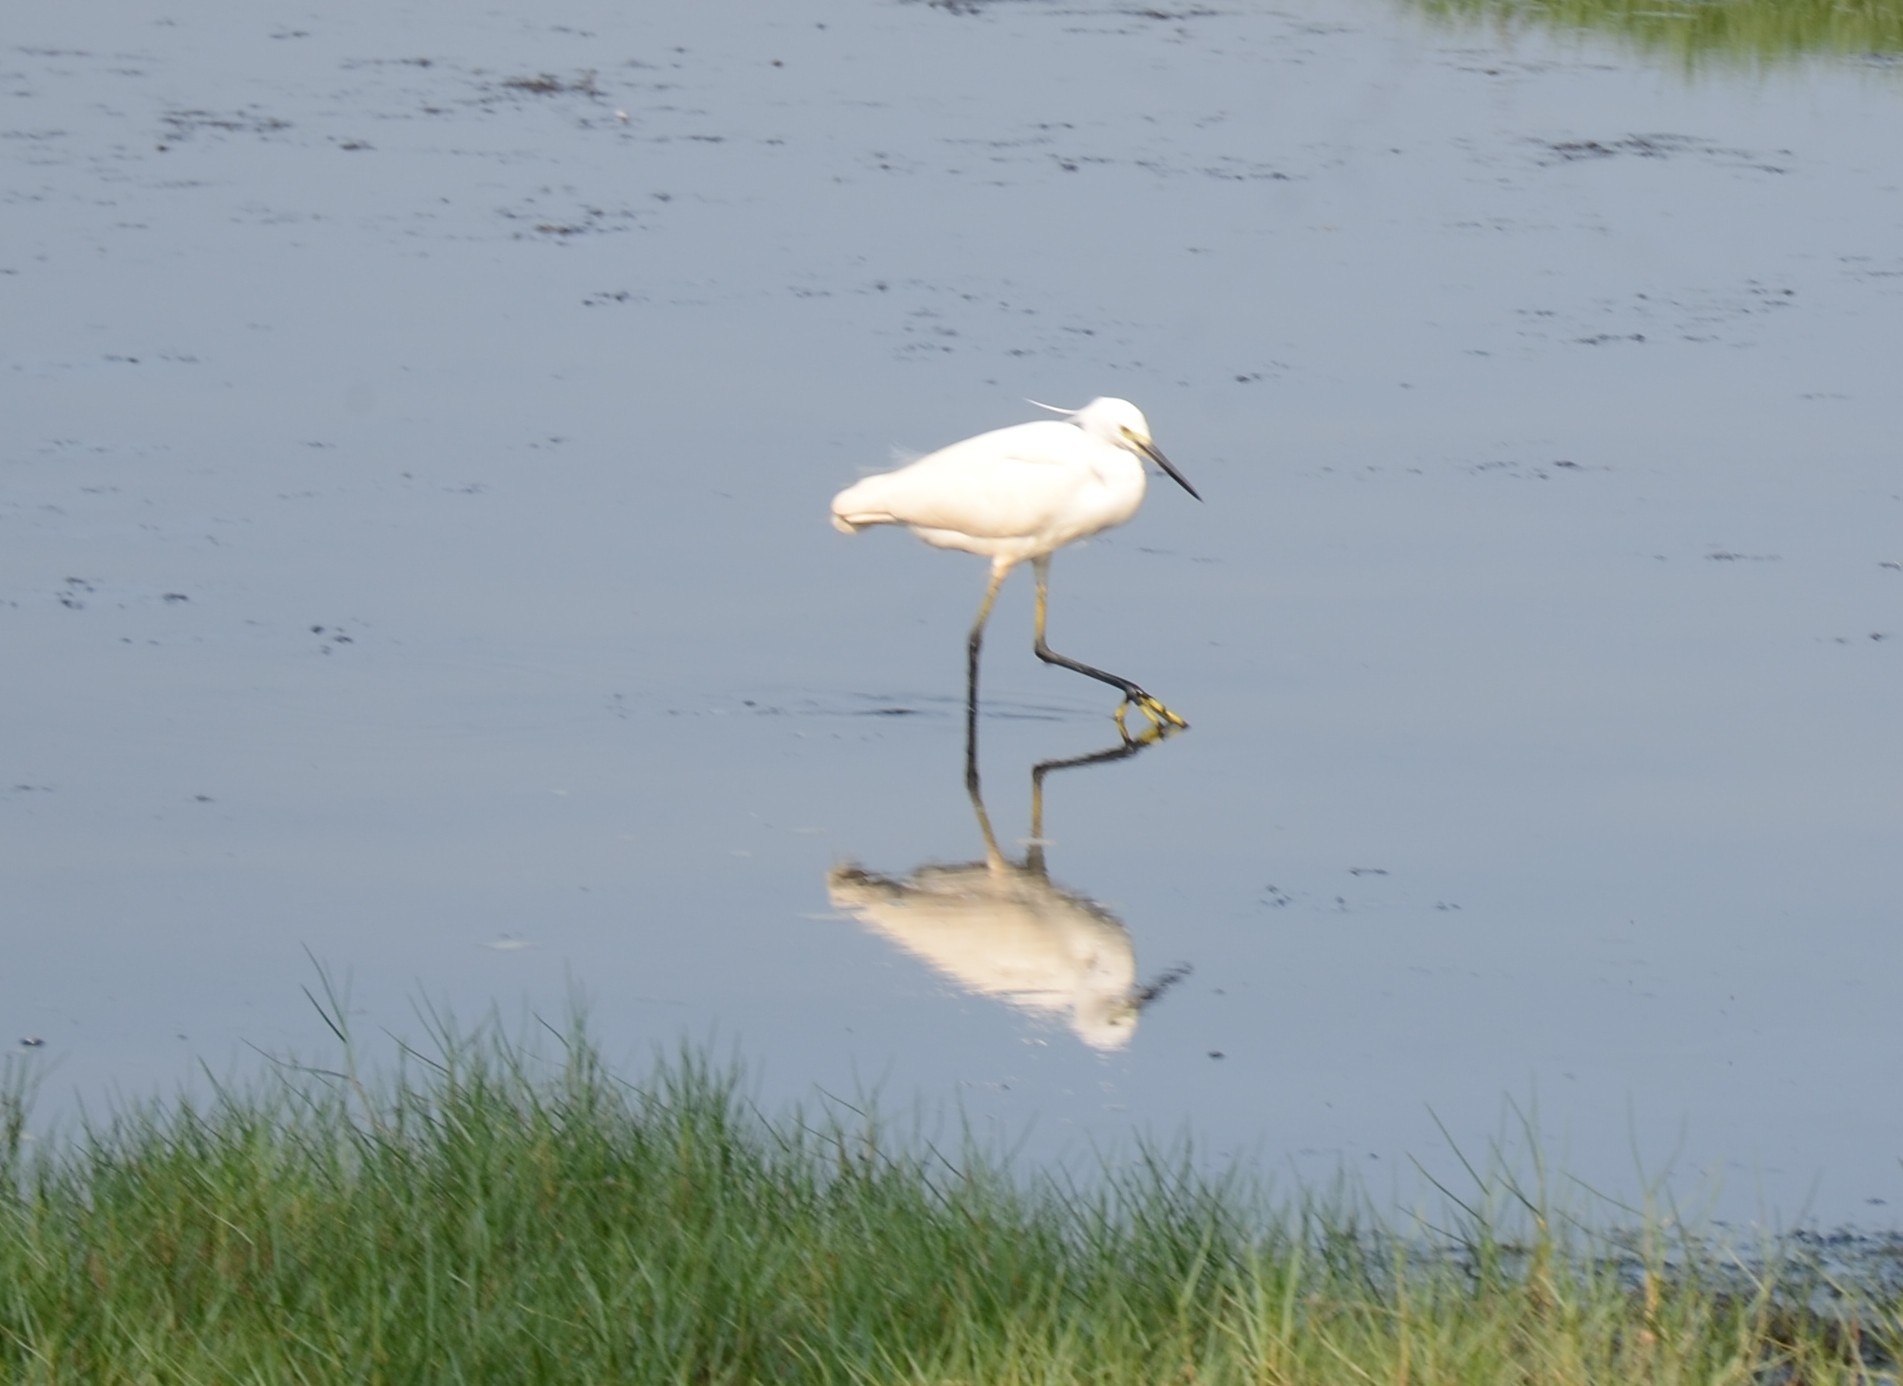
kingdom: Animalia
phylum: Chordata
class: Aves
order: Pelecaniformes
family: Ardeidae
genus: Egretta
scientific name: Egretta garzetta
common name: Little egret
